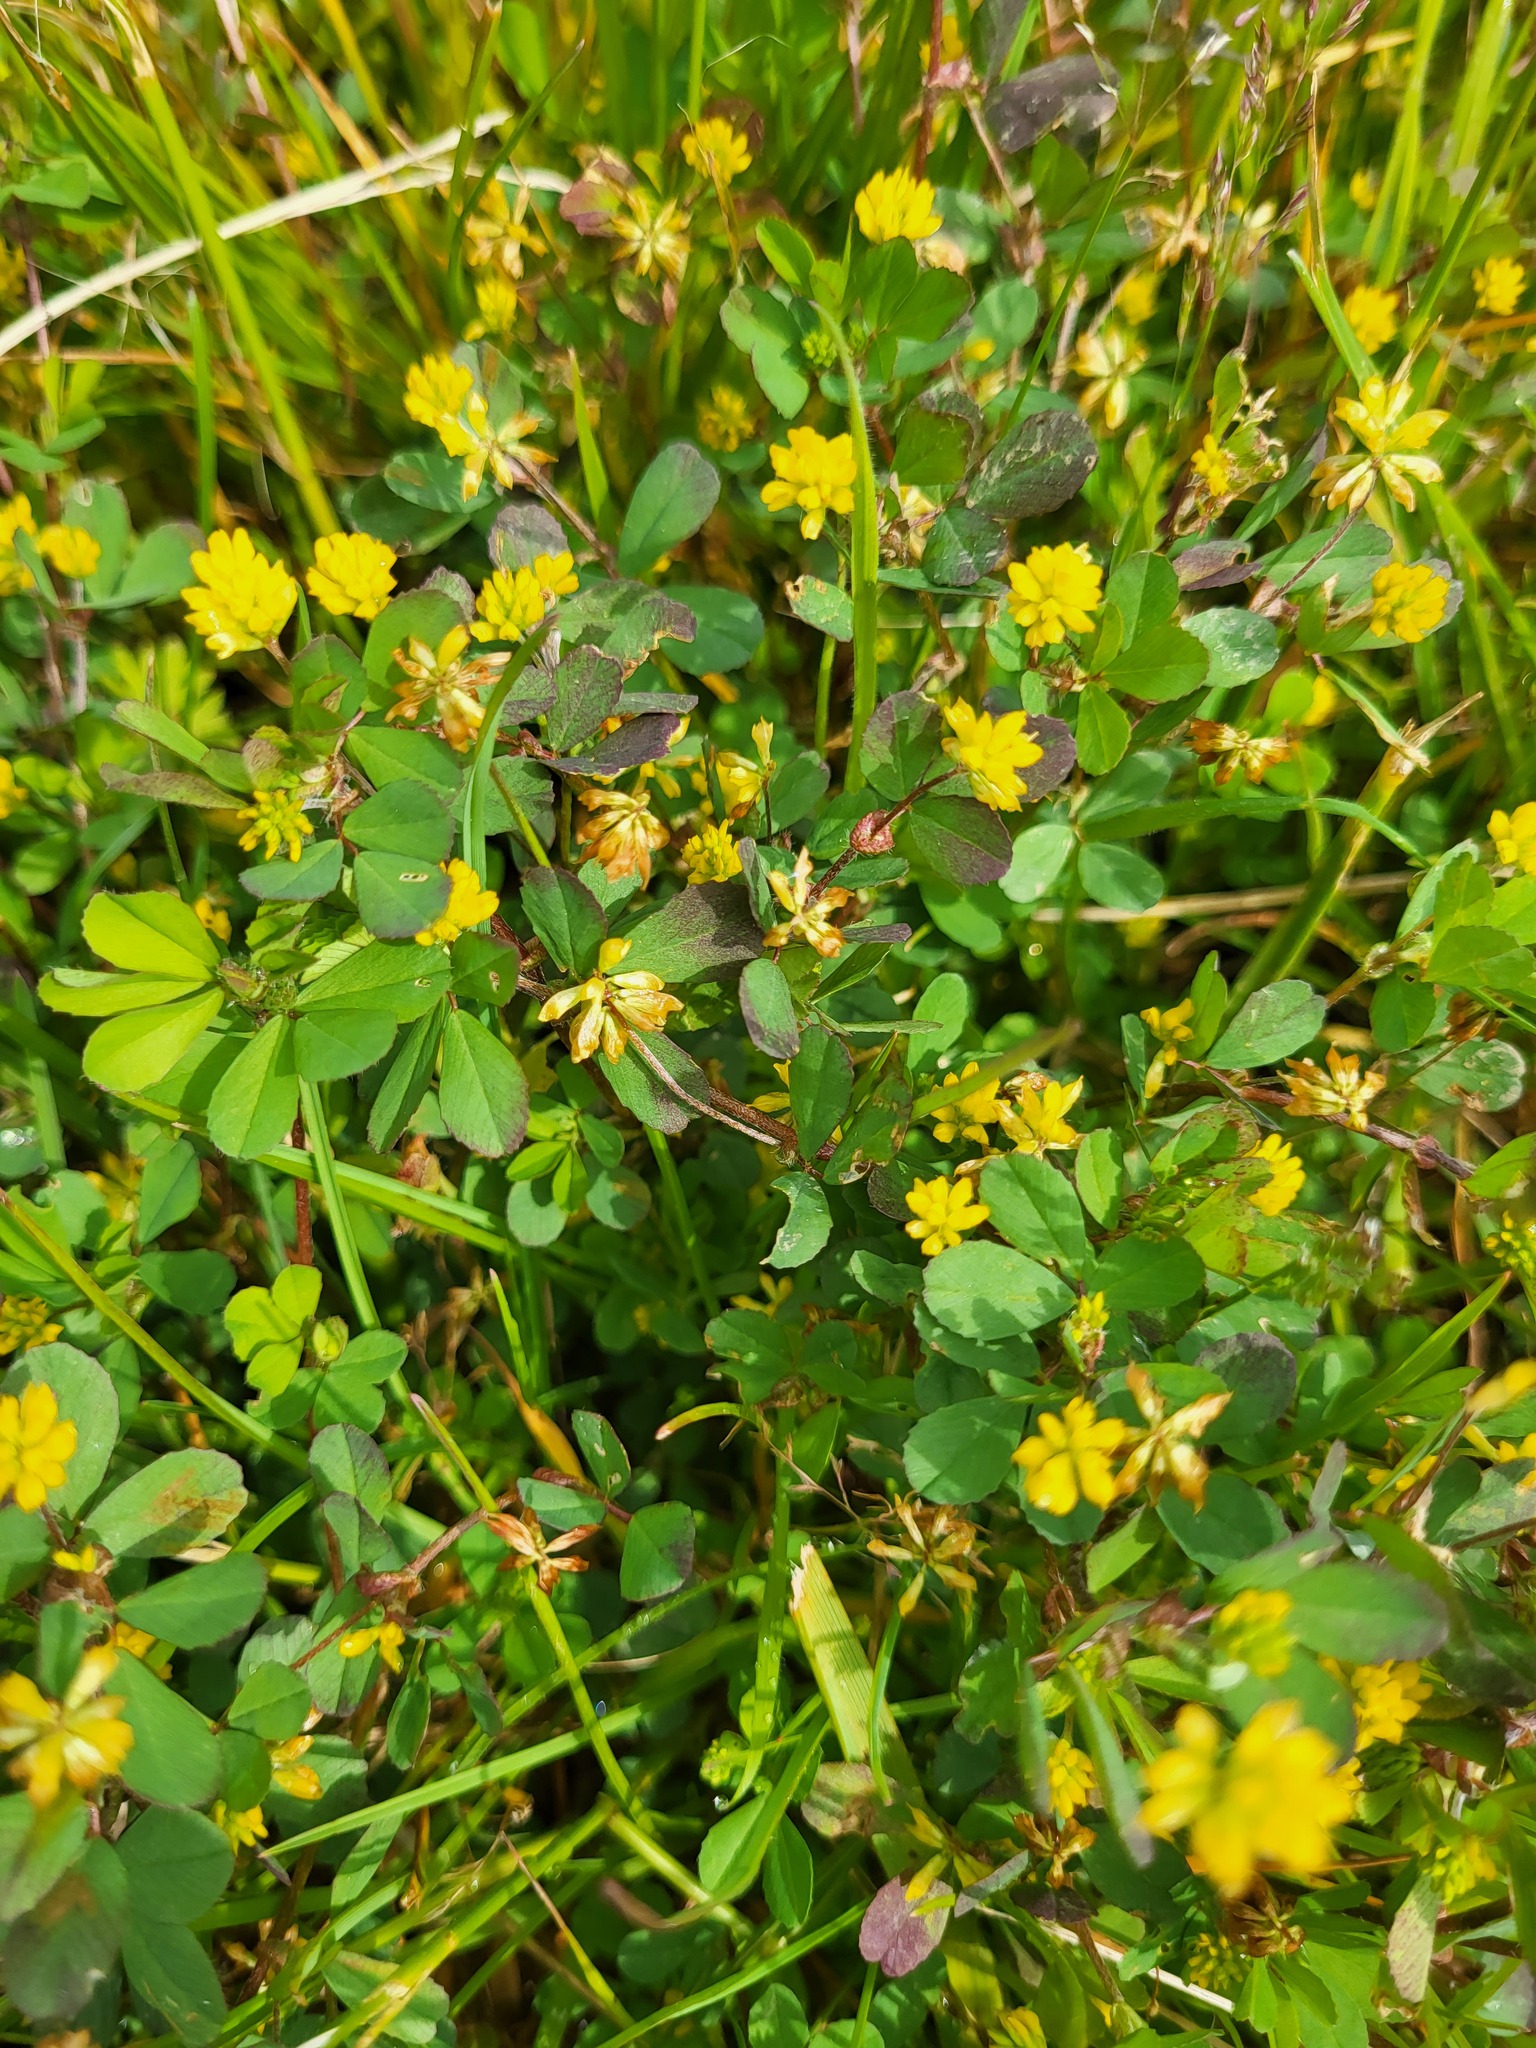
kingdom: Plantae
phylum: Tracheophyta
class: Magnoliopsida
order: Fabales
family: Fabaceae
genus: Trifolium
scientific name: Trifolium dubium
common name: Suckling clover
